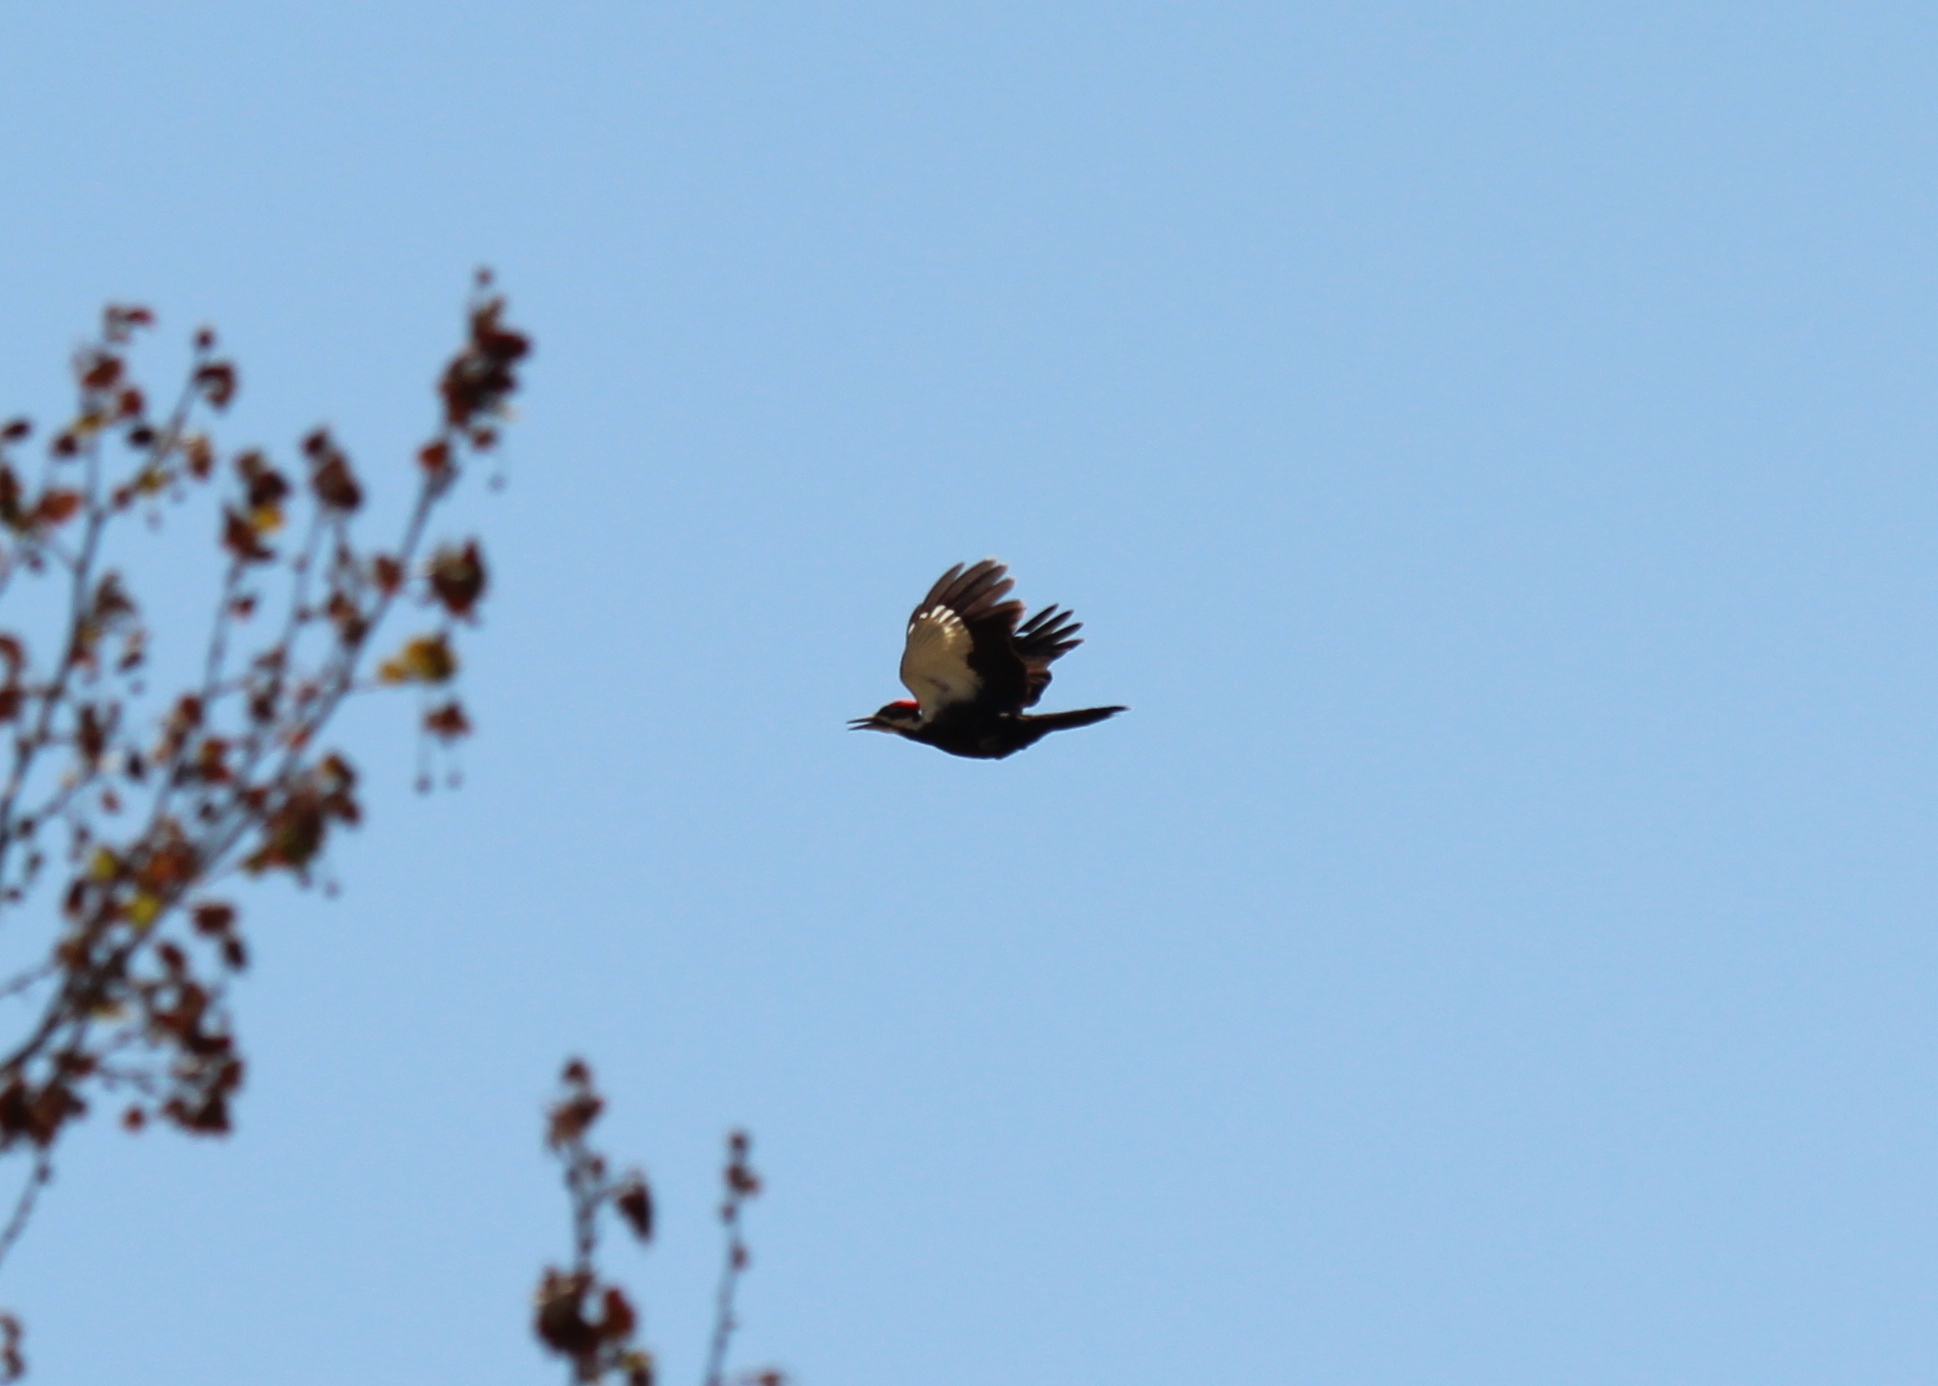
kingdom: Animalia
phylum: Chordata
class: Aves
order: Piciformes
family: Picidae
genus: Dryocopus
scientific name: Dryocopus pileatus
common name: Pileated woodpecker
